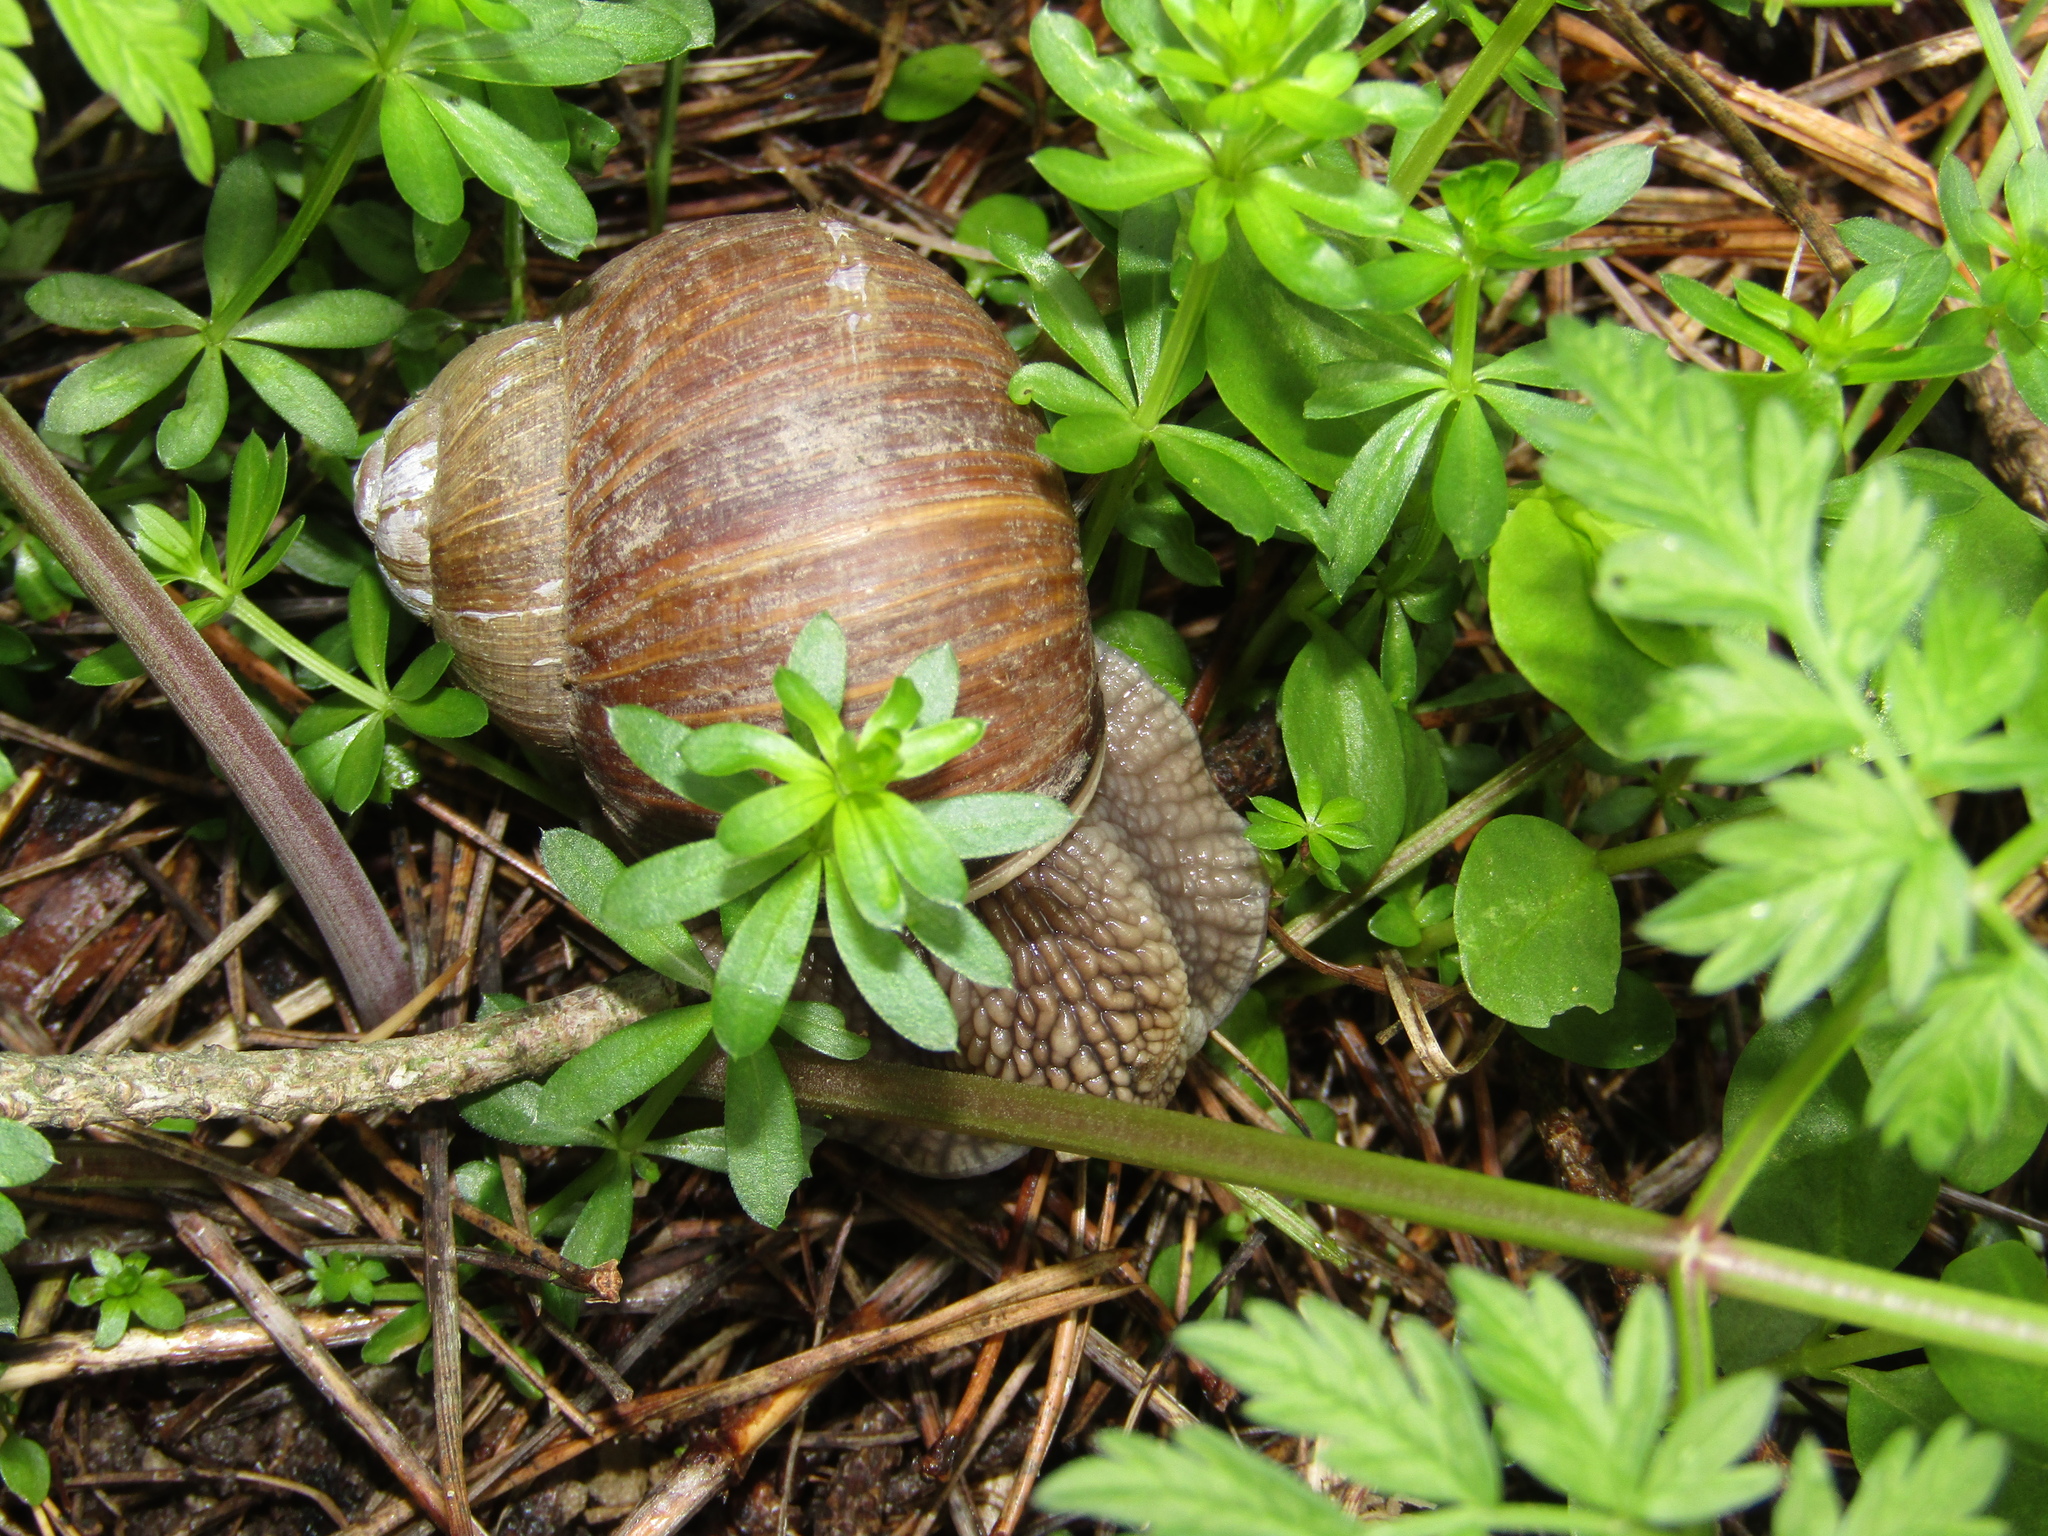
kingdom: Animalia
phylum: Mollusca
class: Gastropoda
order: Stylommatophora
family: Helicidae
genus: Helix
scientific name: Helix pomatia
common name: Roman snail
